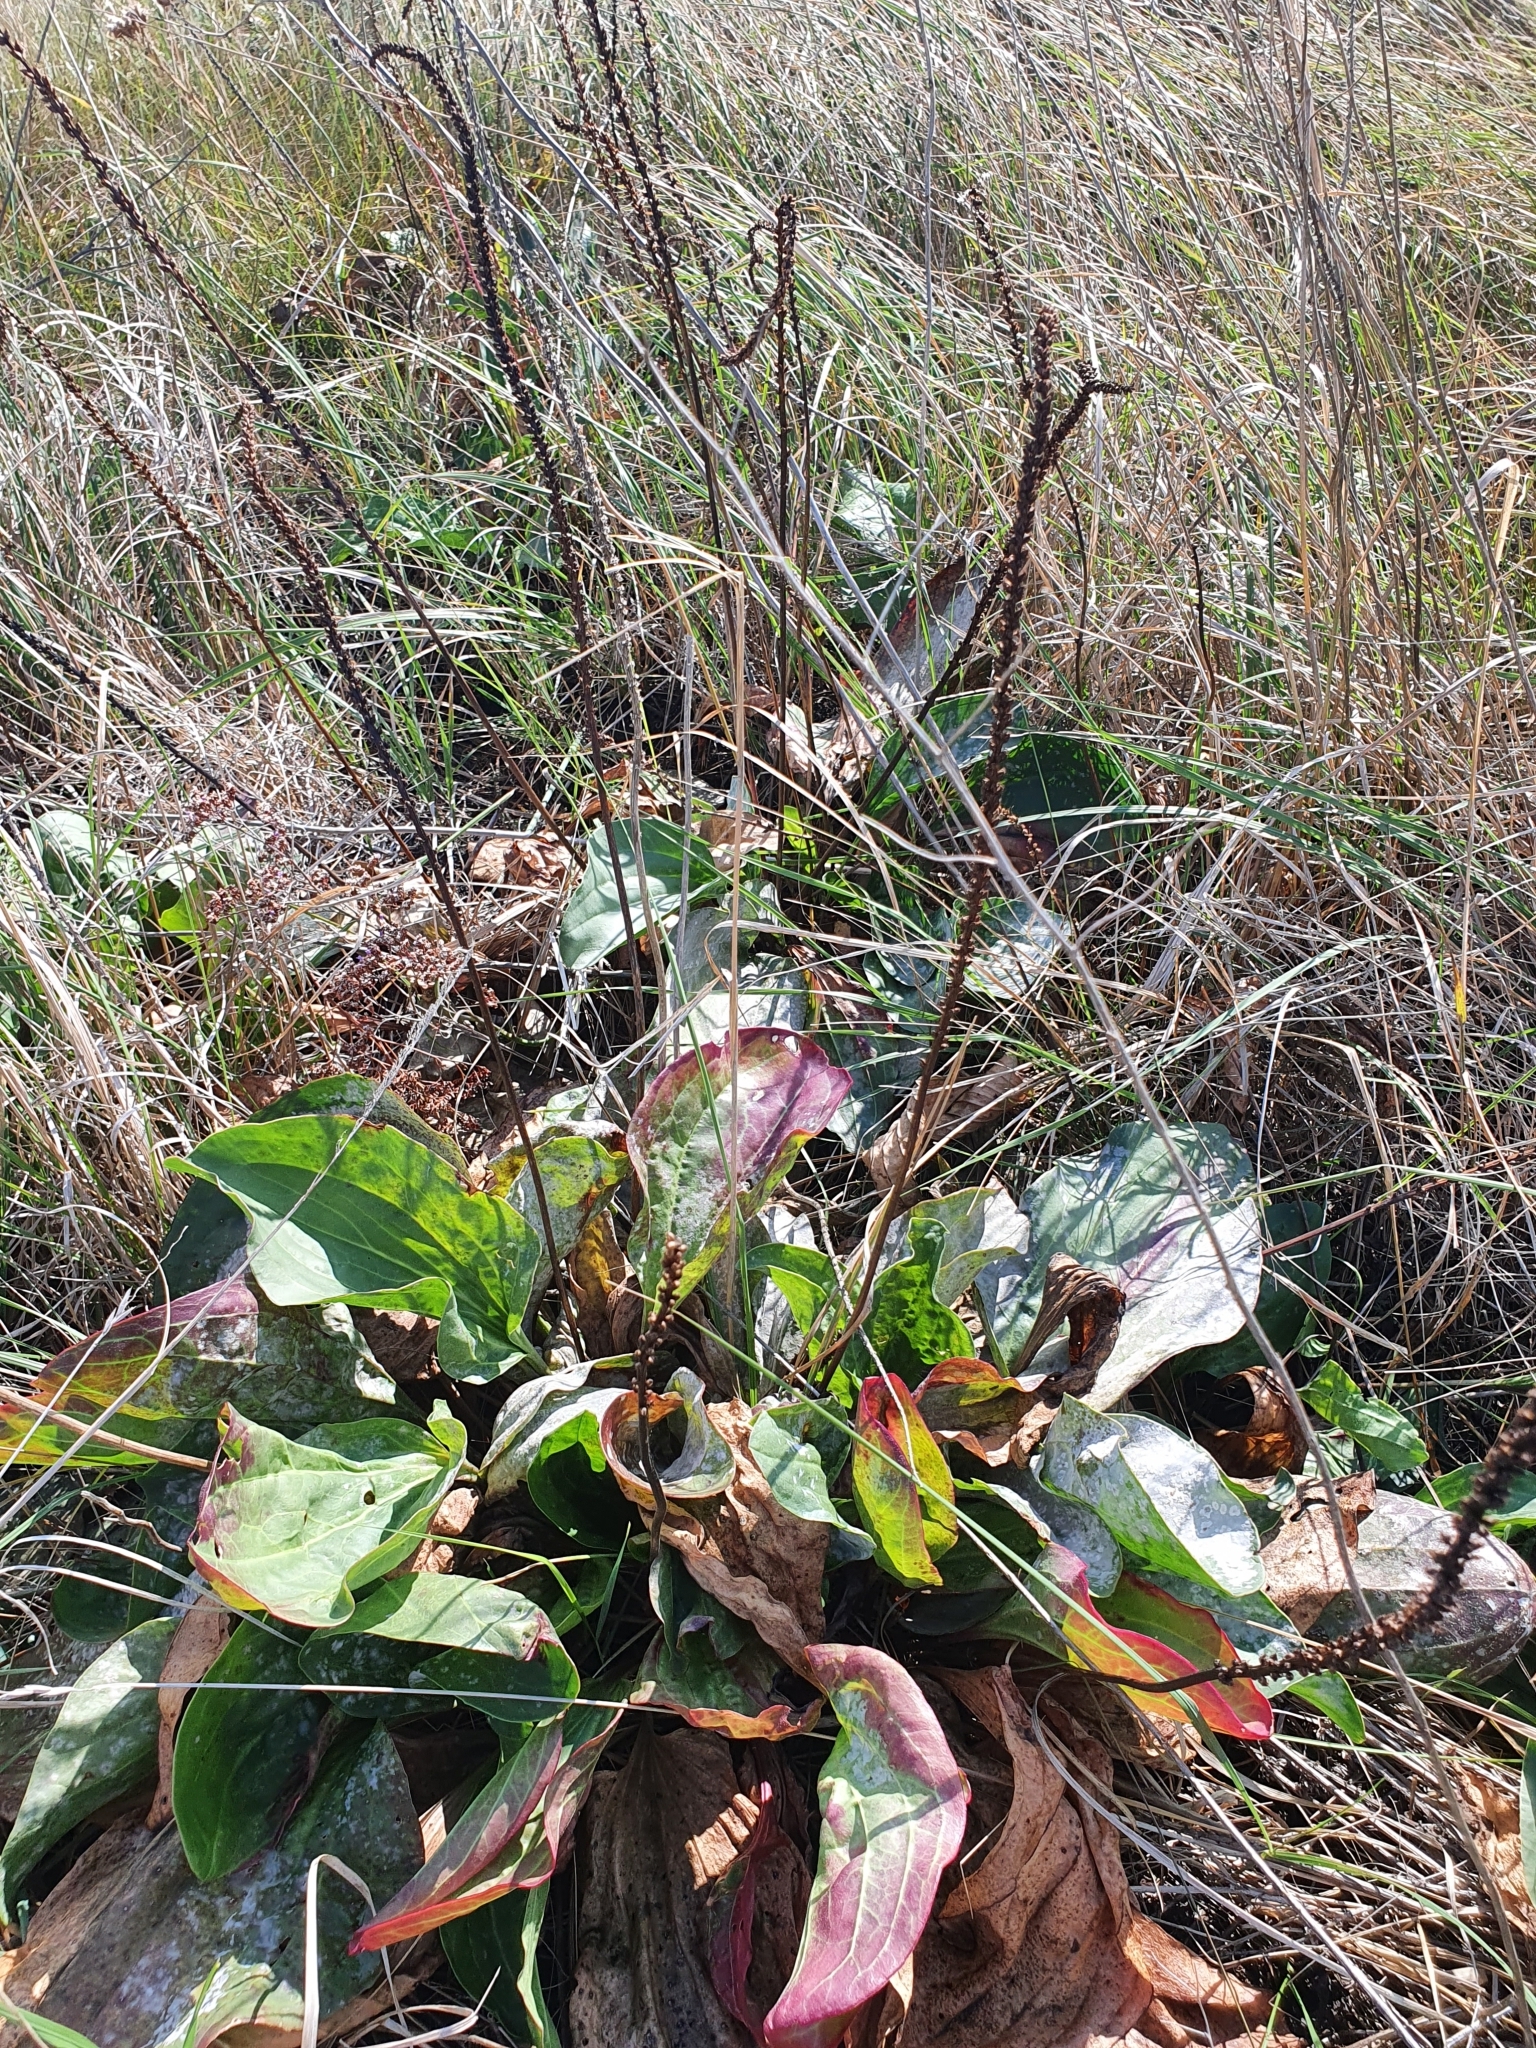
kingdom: Plantae
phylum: Tracheophyta
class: Magnoliopsida
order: Lamiales
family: Plantaginaceae
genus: Plantago
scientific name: Plantago cornuti
